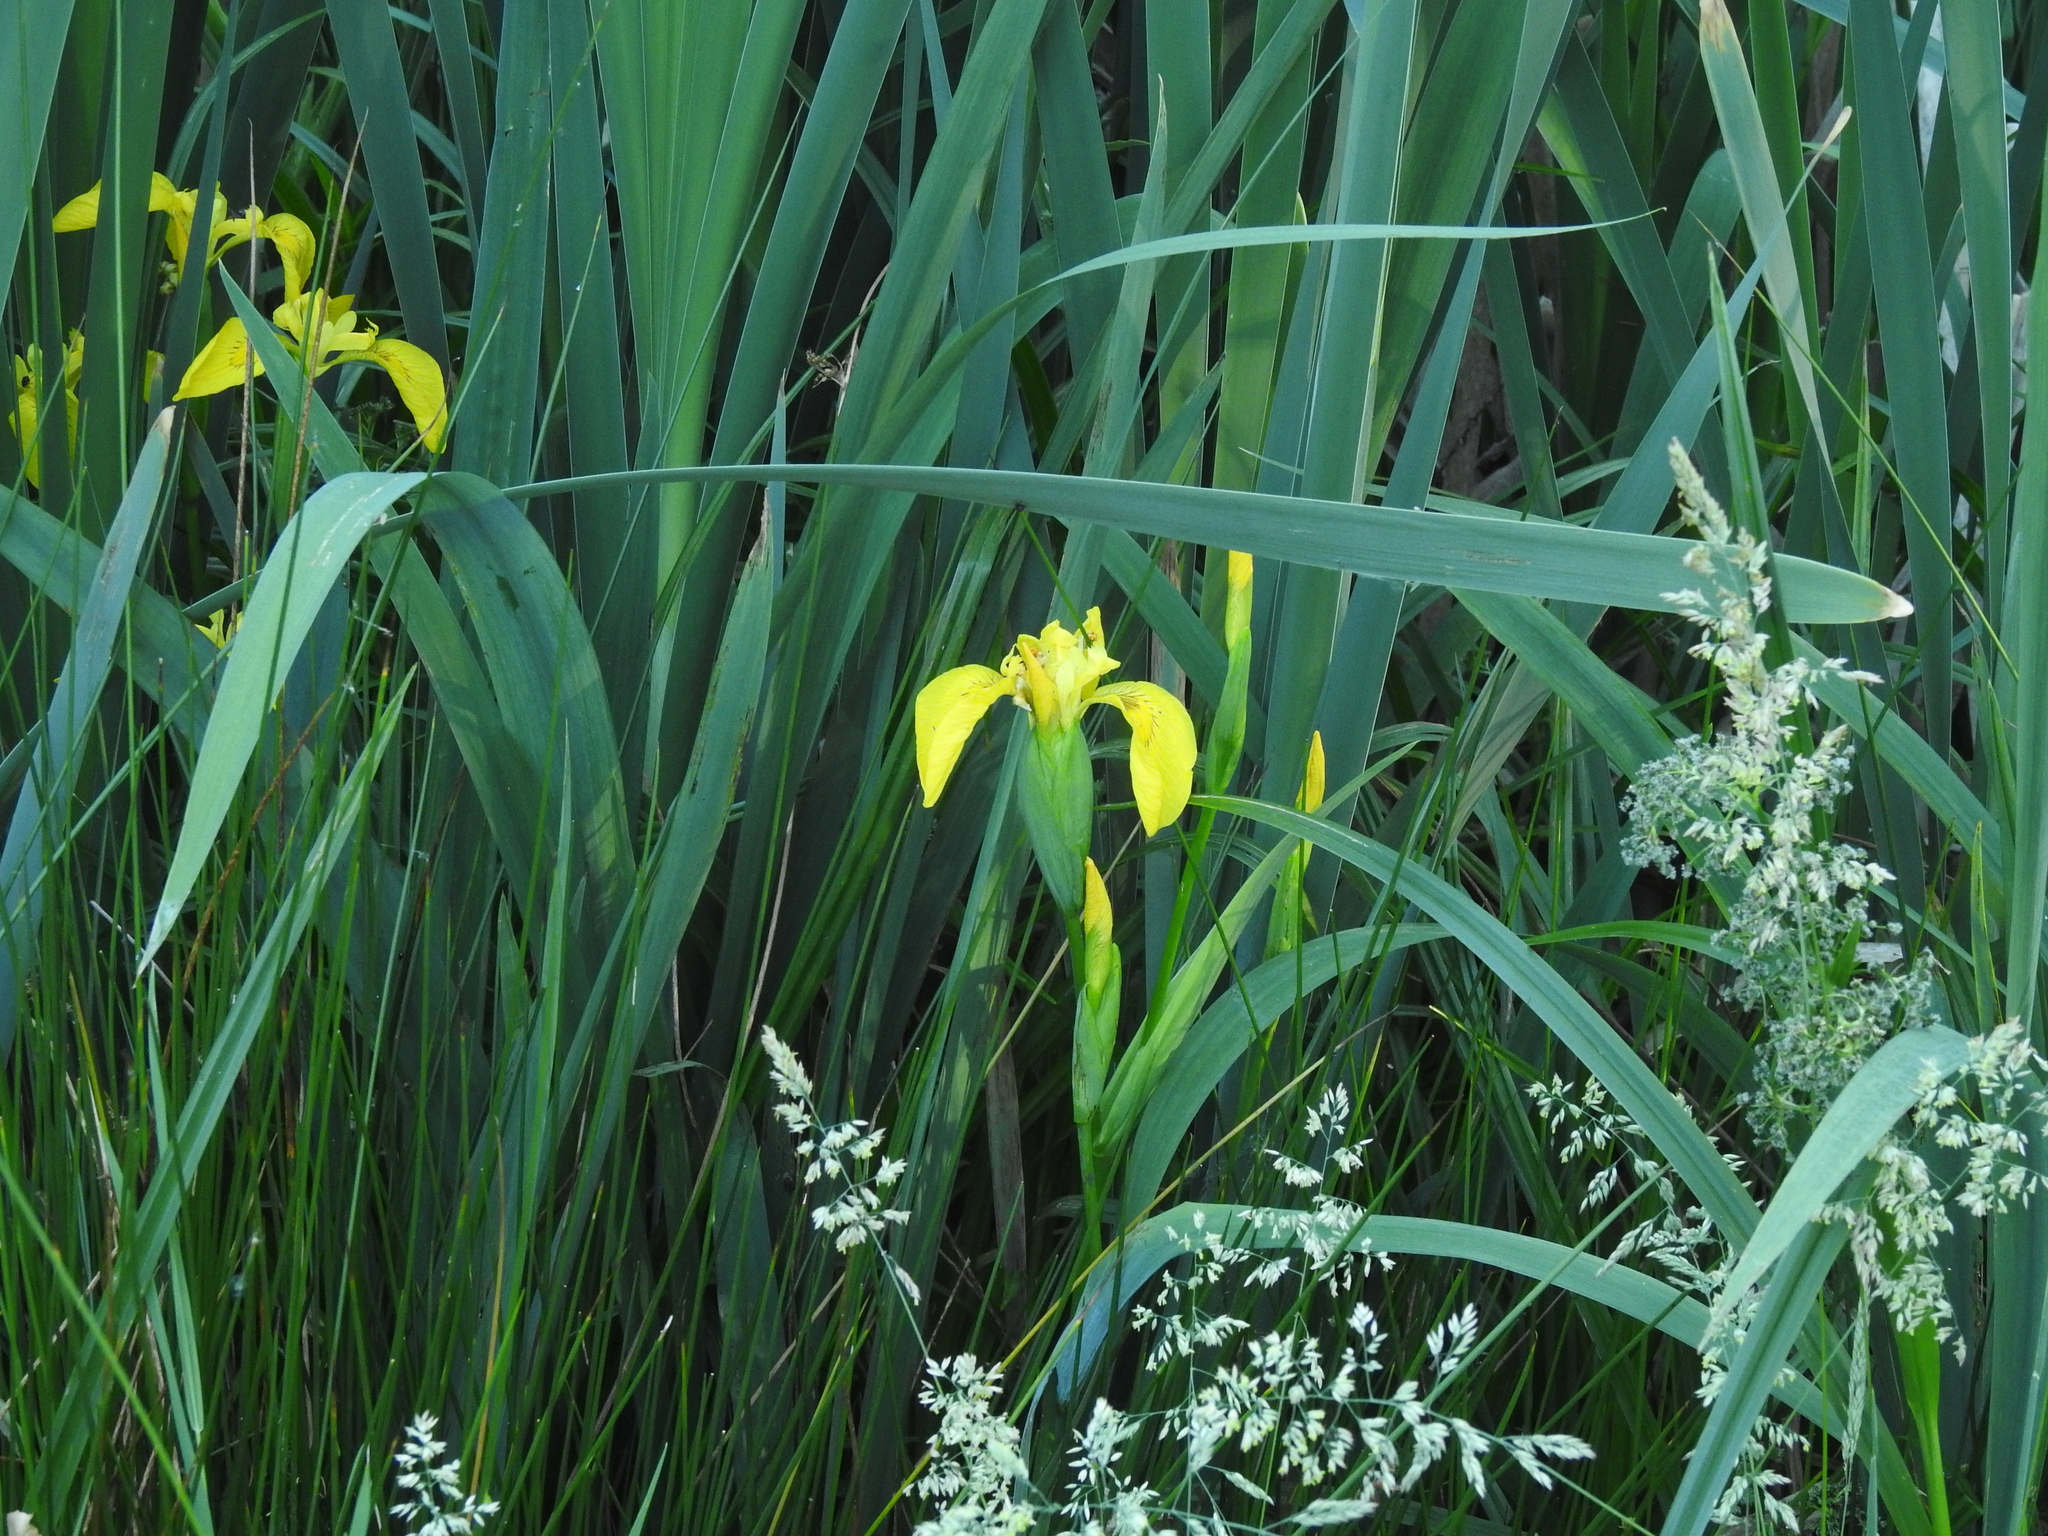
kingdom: Plantae
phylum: Tracheophyta
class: Liliopsida
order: Asparagales
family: Iridaceae
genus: Iris
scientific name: Iris pseudacorus
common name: Yellow flag
